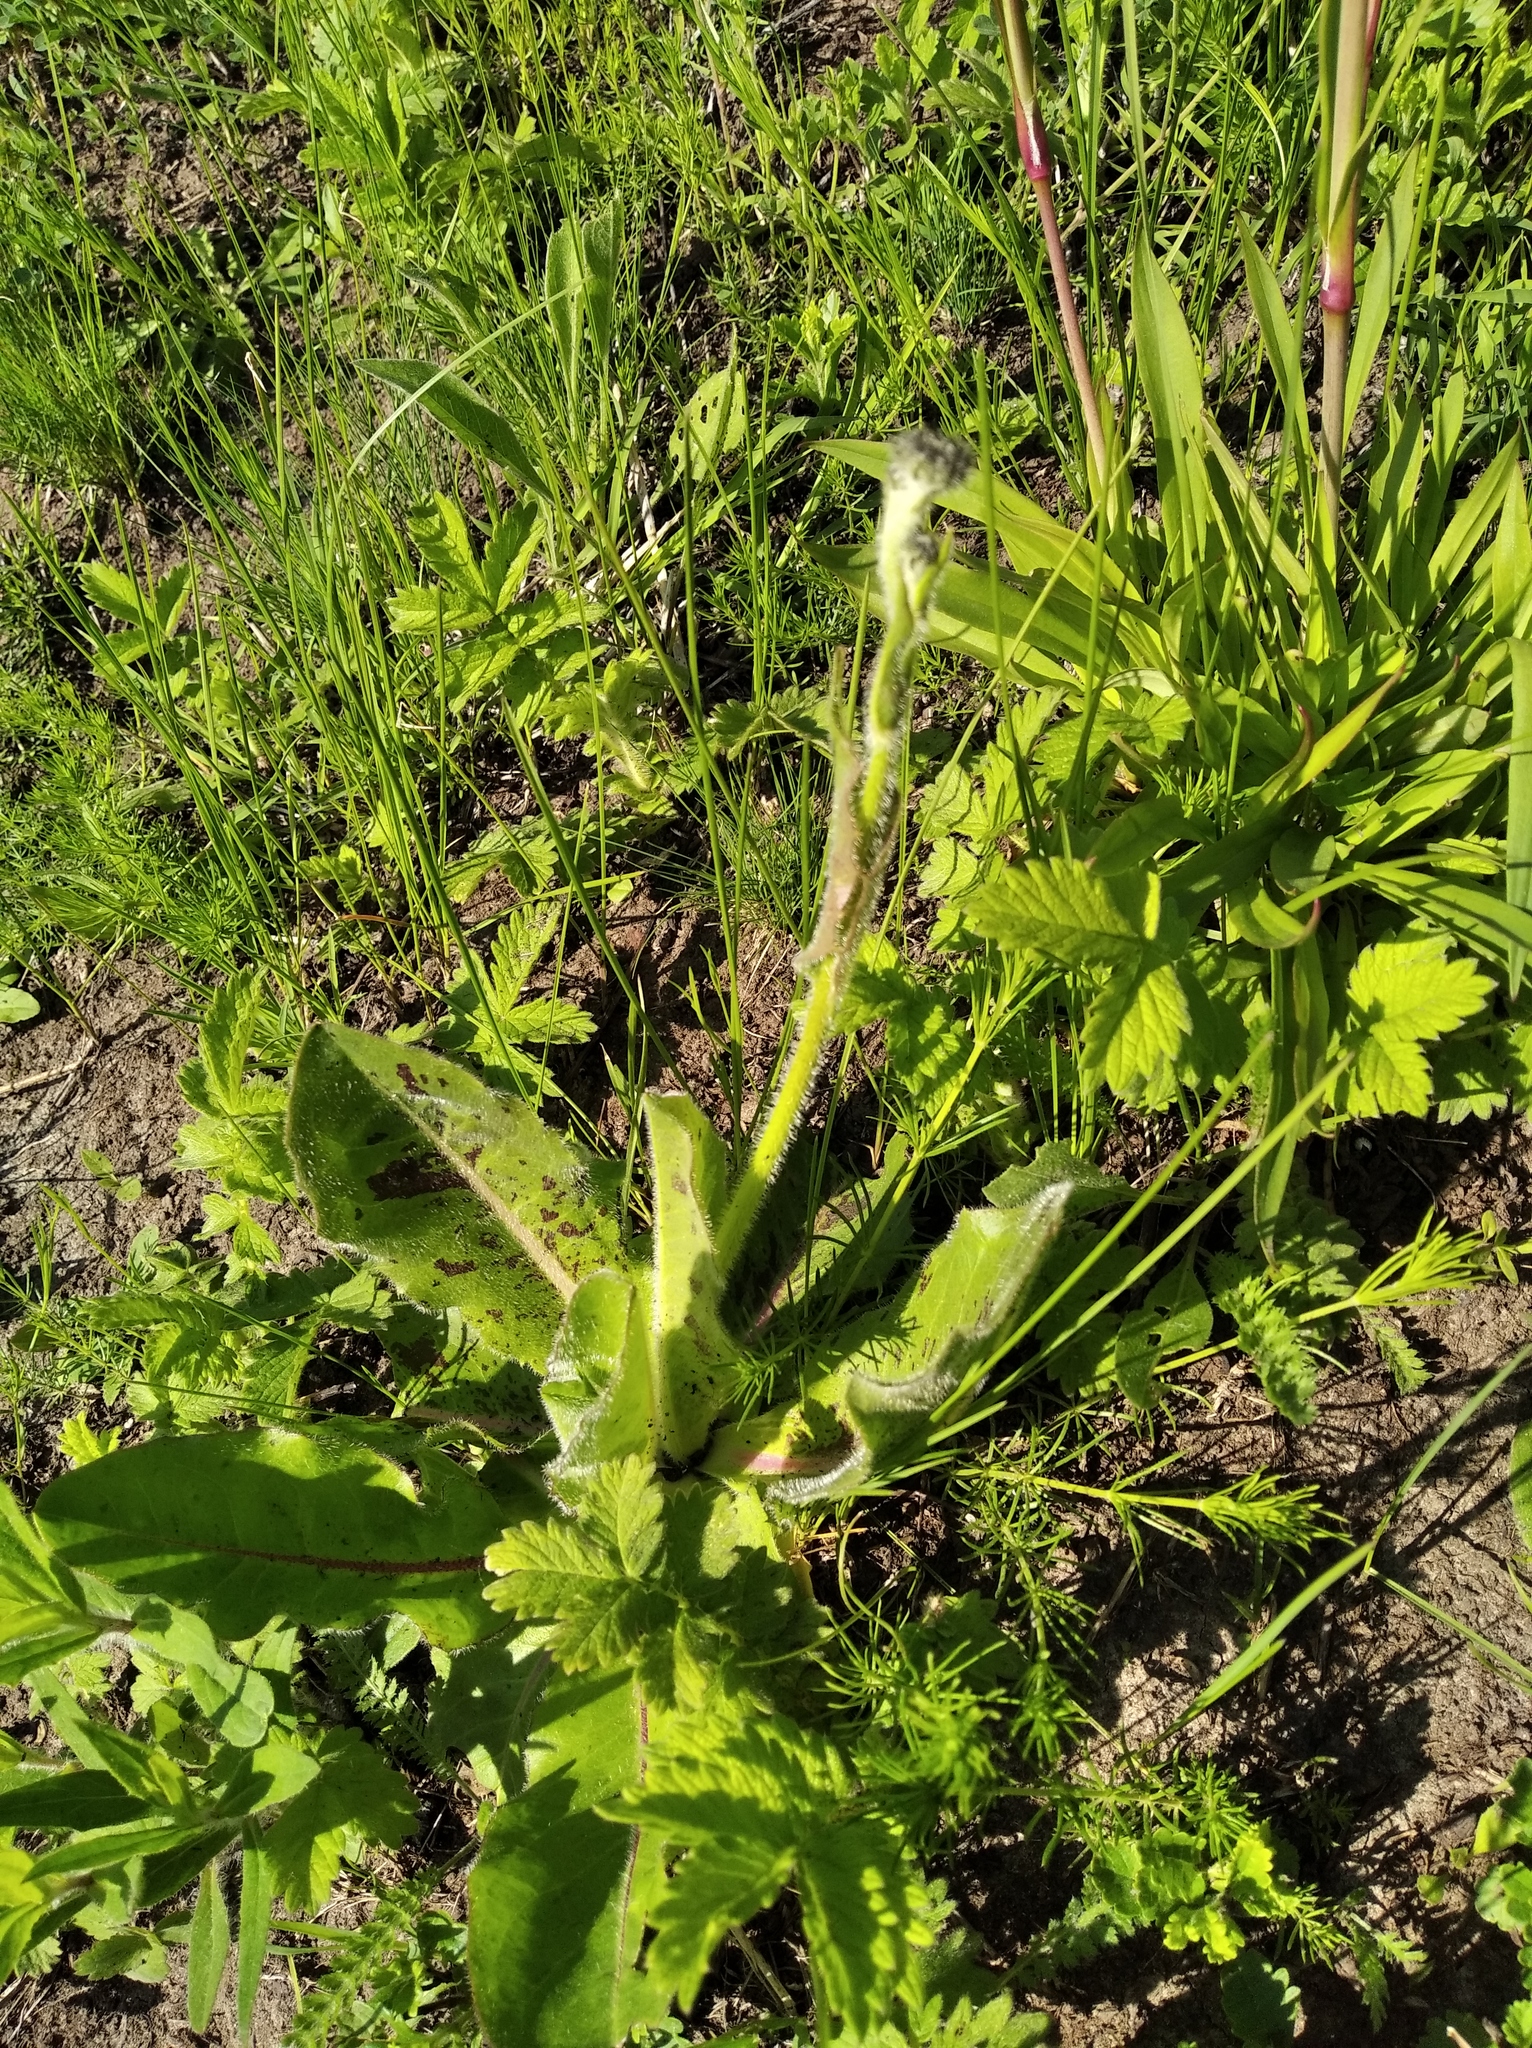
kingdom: Plantae
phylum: Tracheophyta
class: Magnoliopsida
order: Asterales
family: Asteraceae
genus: Trommsdorffia
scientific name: Trommsdorffia maculata
